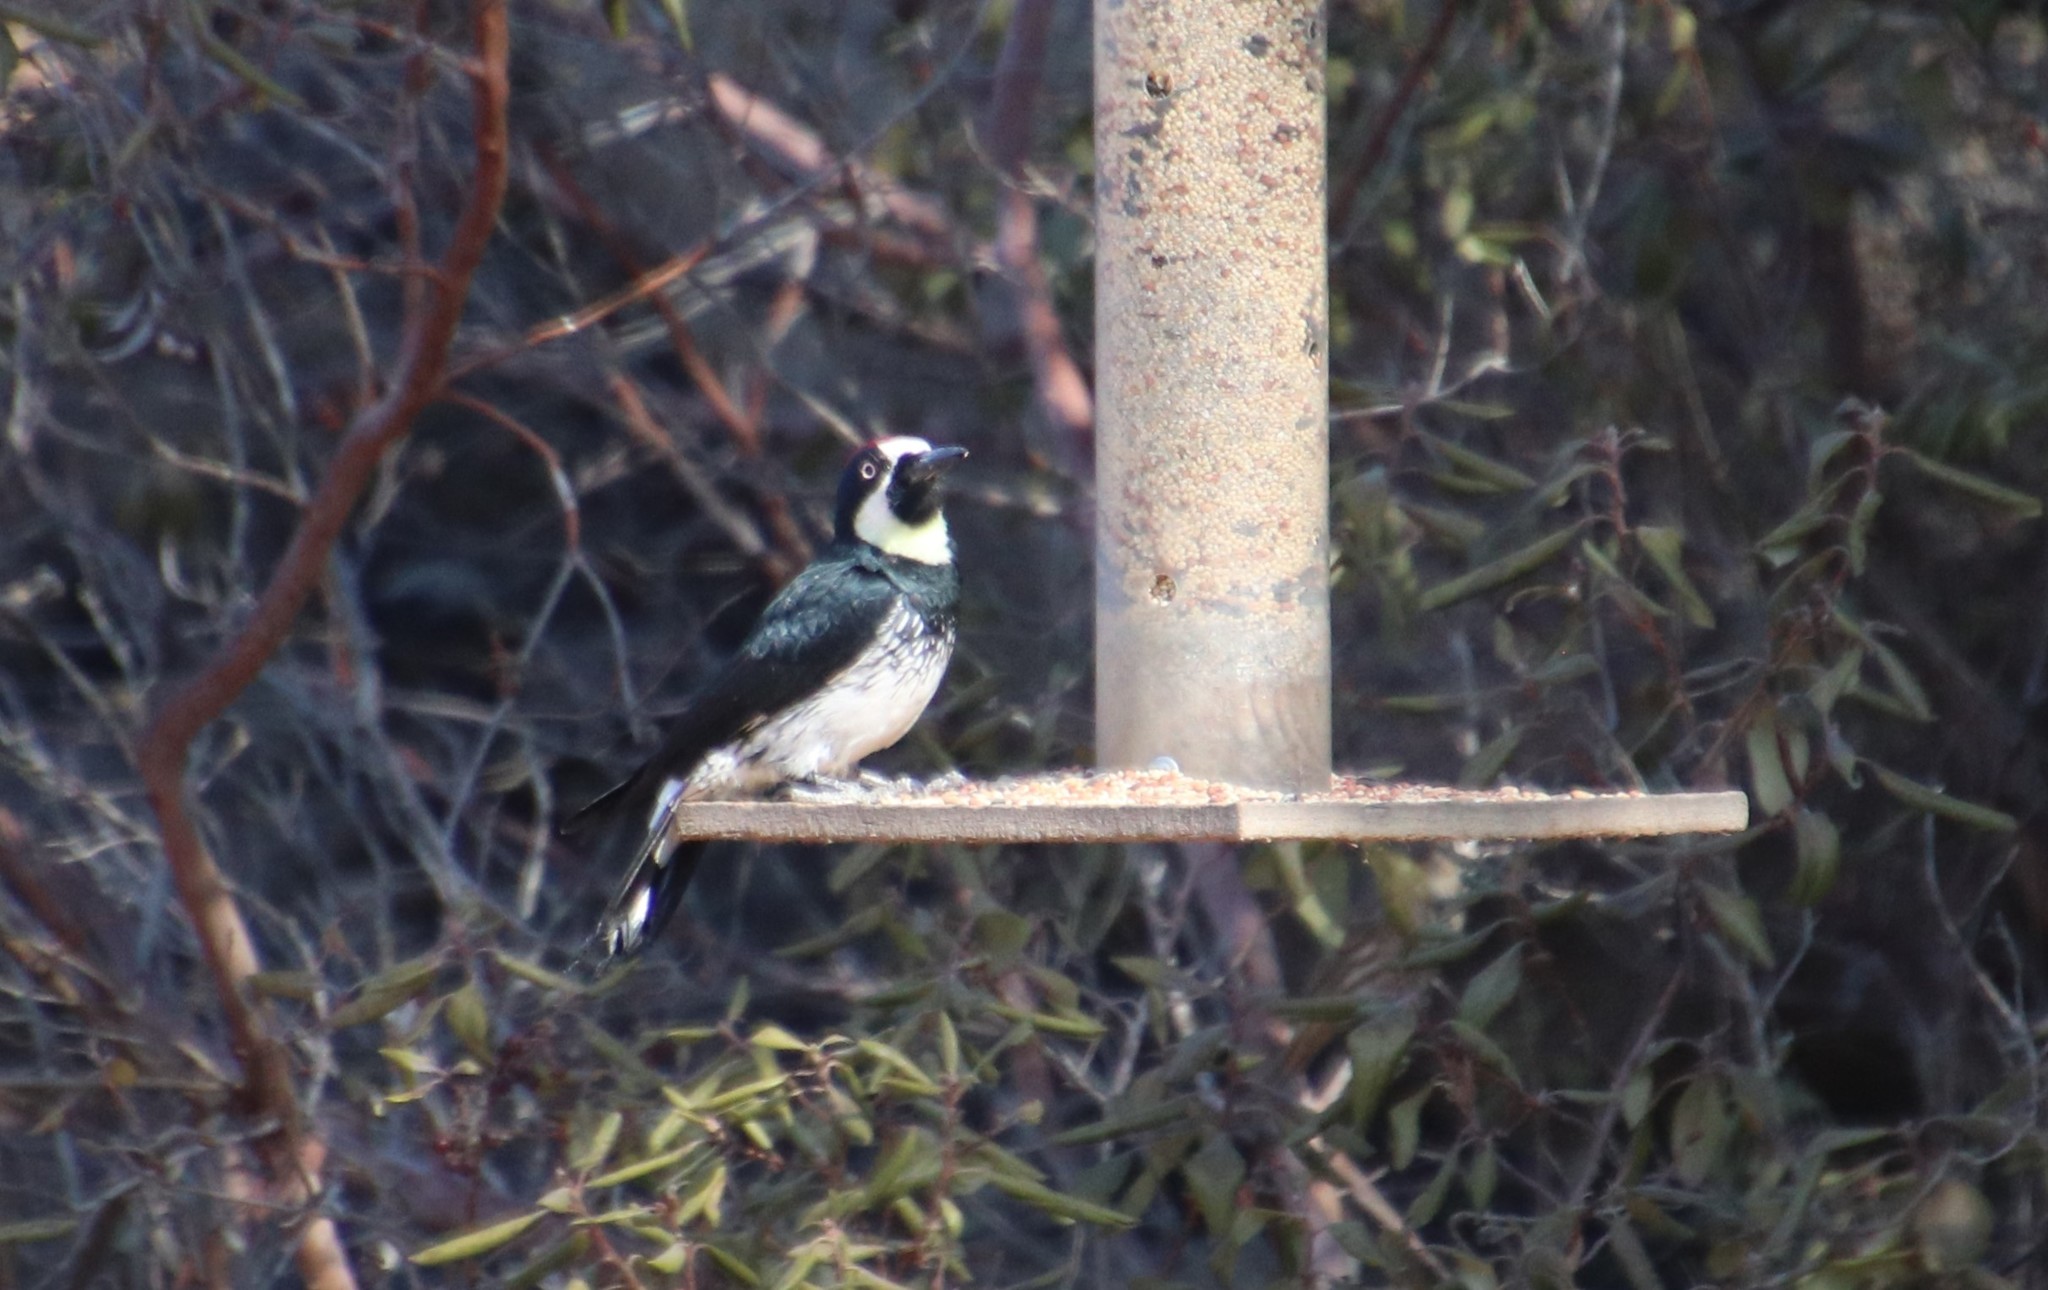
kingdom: Animalia
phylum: Chordata
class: Aves
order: Piciformes
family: Picidae
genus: Melanerpes
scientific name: Melanerpes formicivorus
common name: Acorn woodpecker
